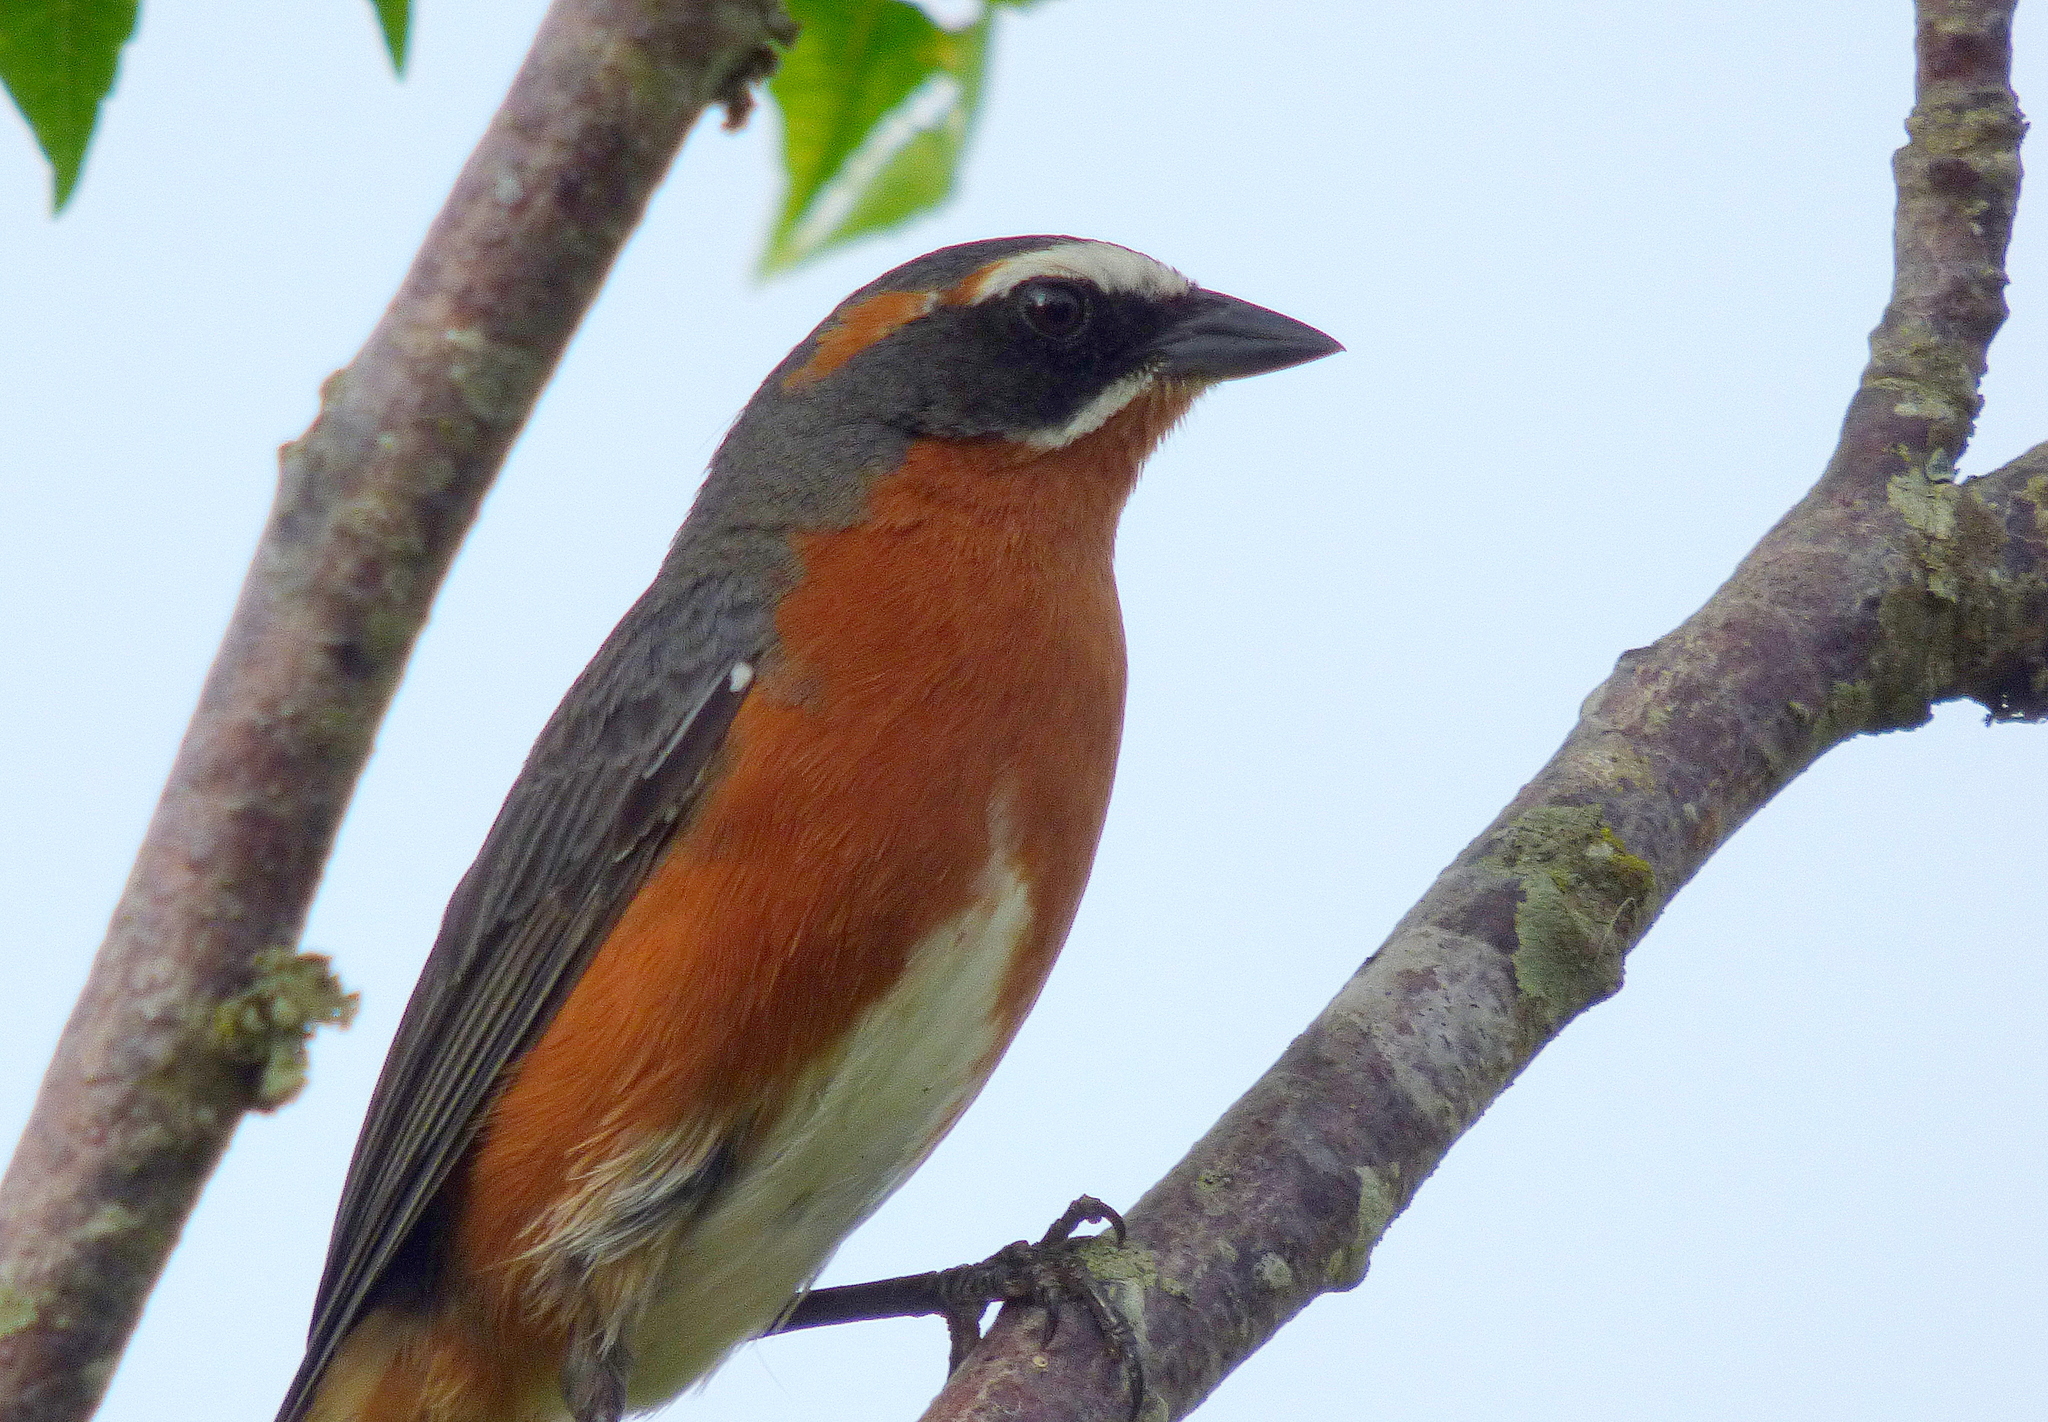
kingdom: Animalia
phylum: Chordata
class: Aves
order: Passeriformes
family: Thraupidae
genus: Poospiza
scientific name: Poospiza nigrorufa
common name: Black-and-rufous warbling finch
